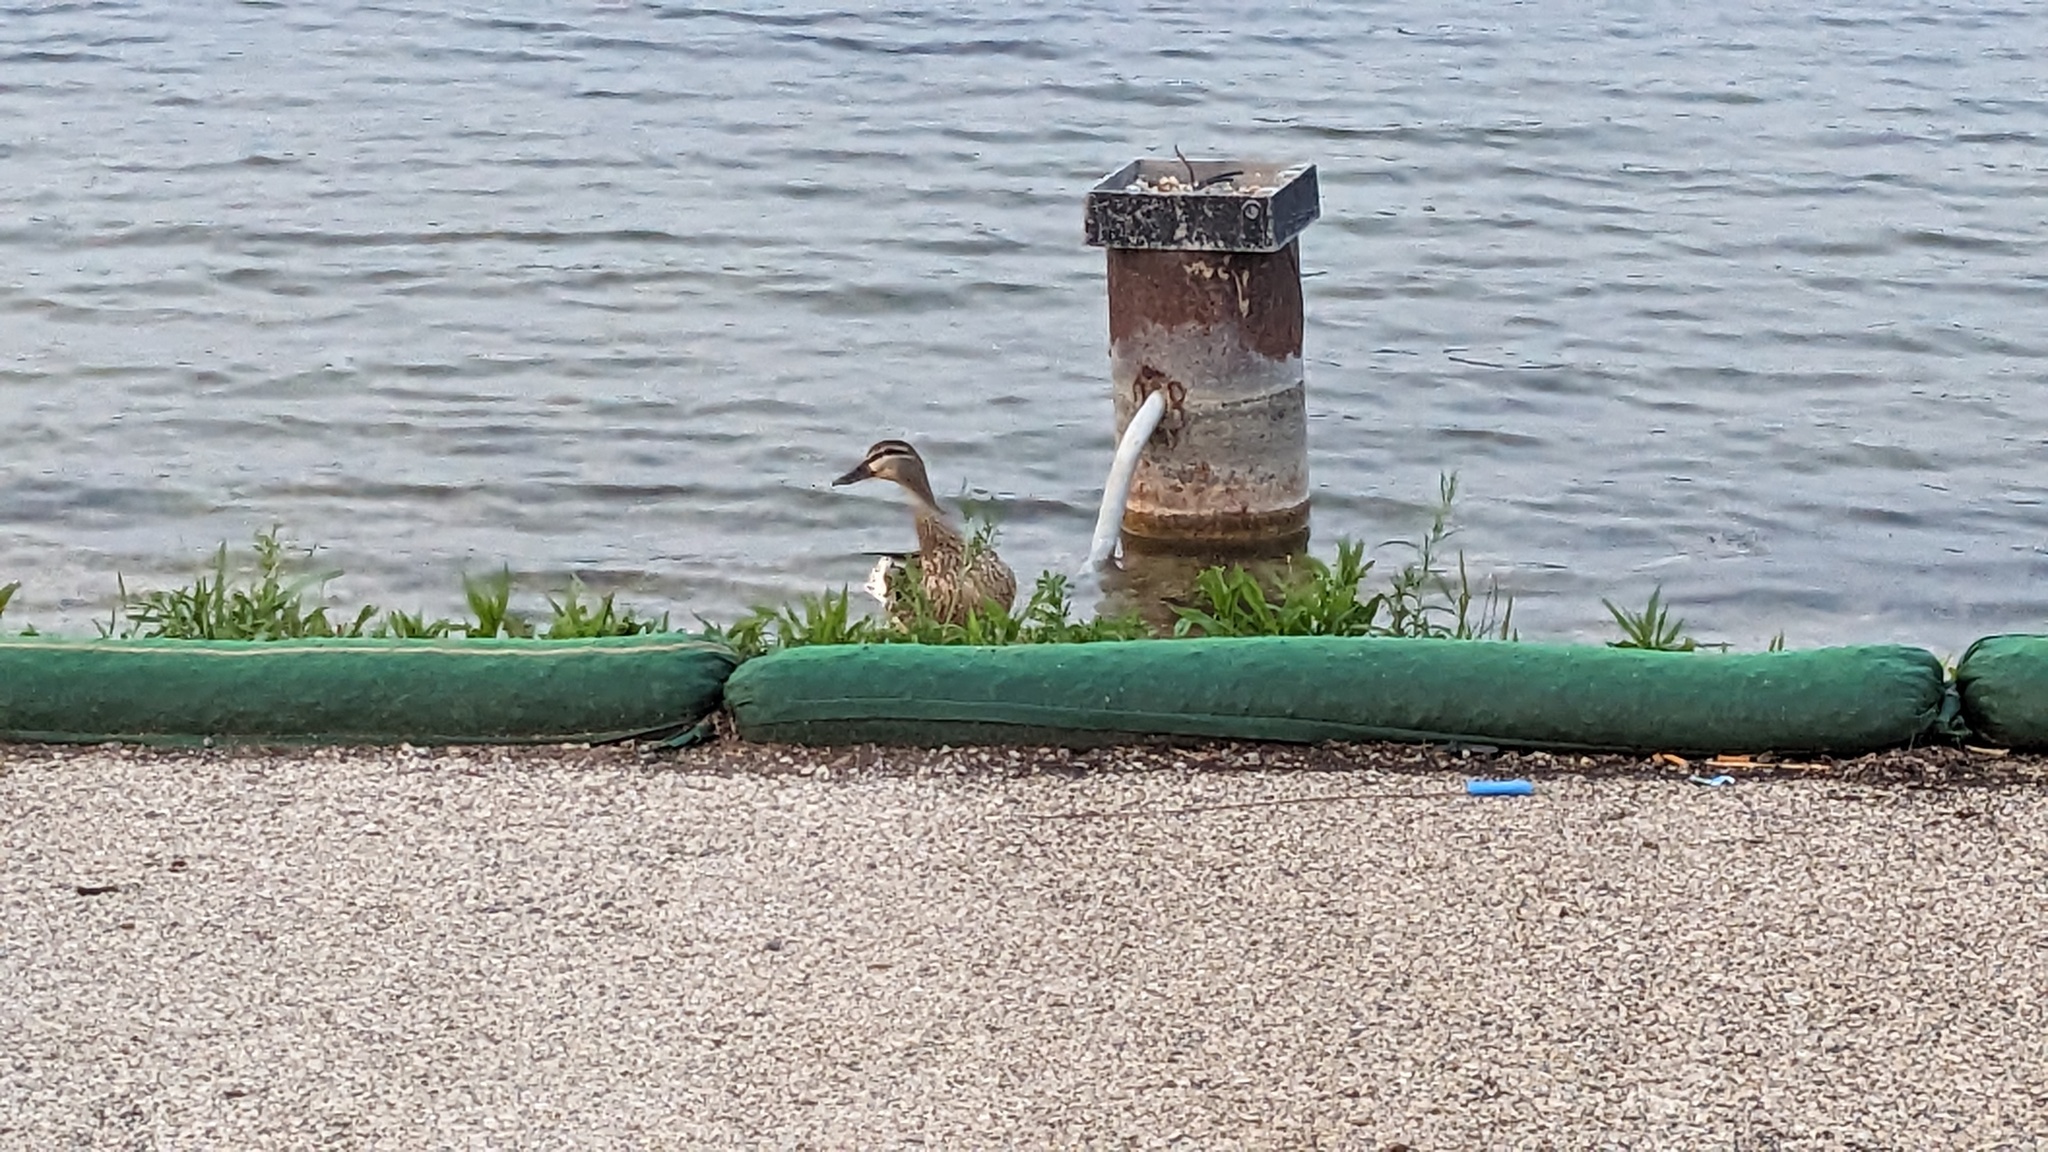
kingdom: Animalia
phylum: Chordata
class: Aves
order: Anseriformes
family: Anatidae
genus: Anas
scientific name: Anas platyrhynchos
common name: Mallard
